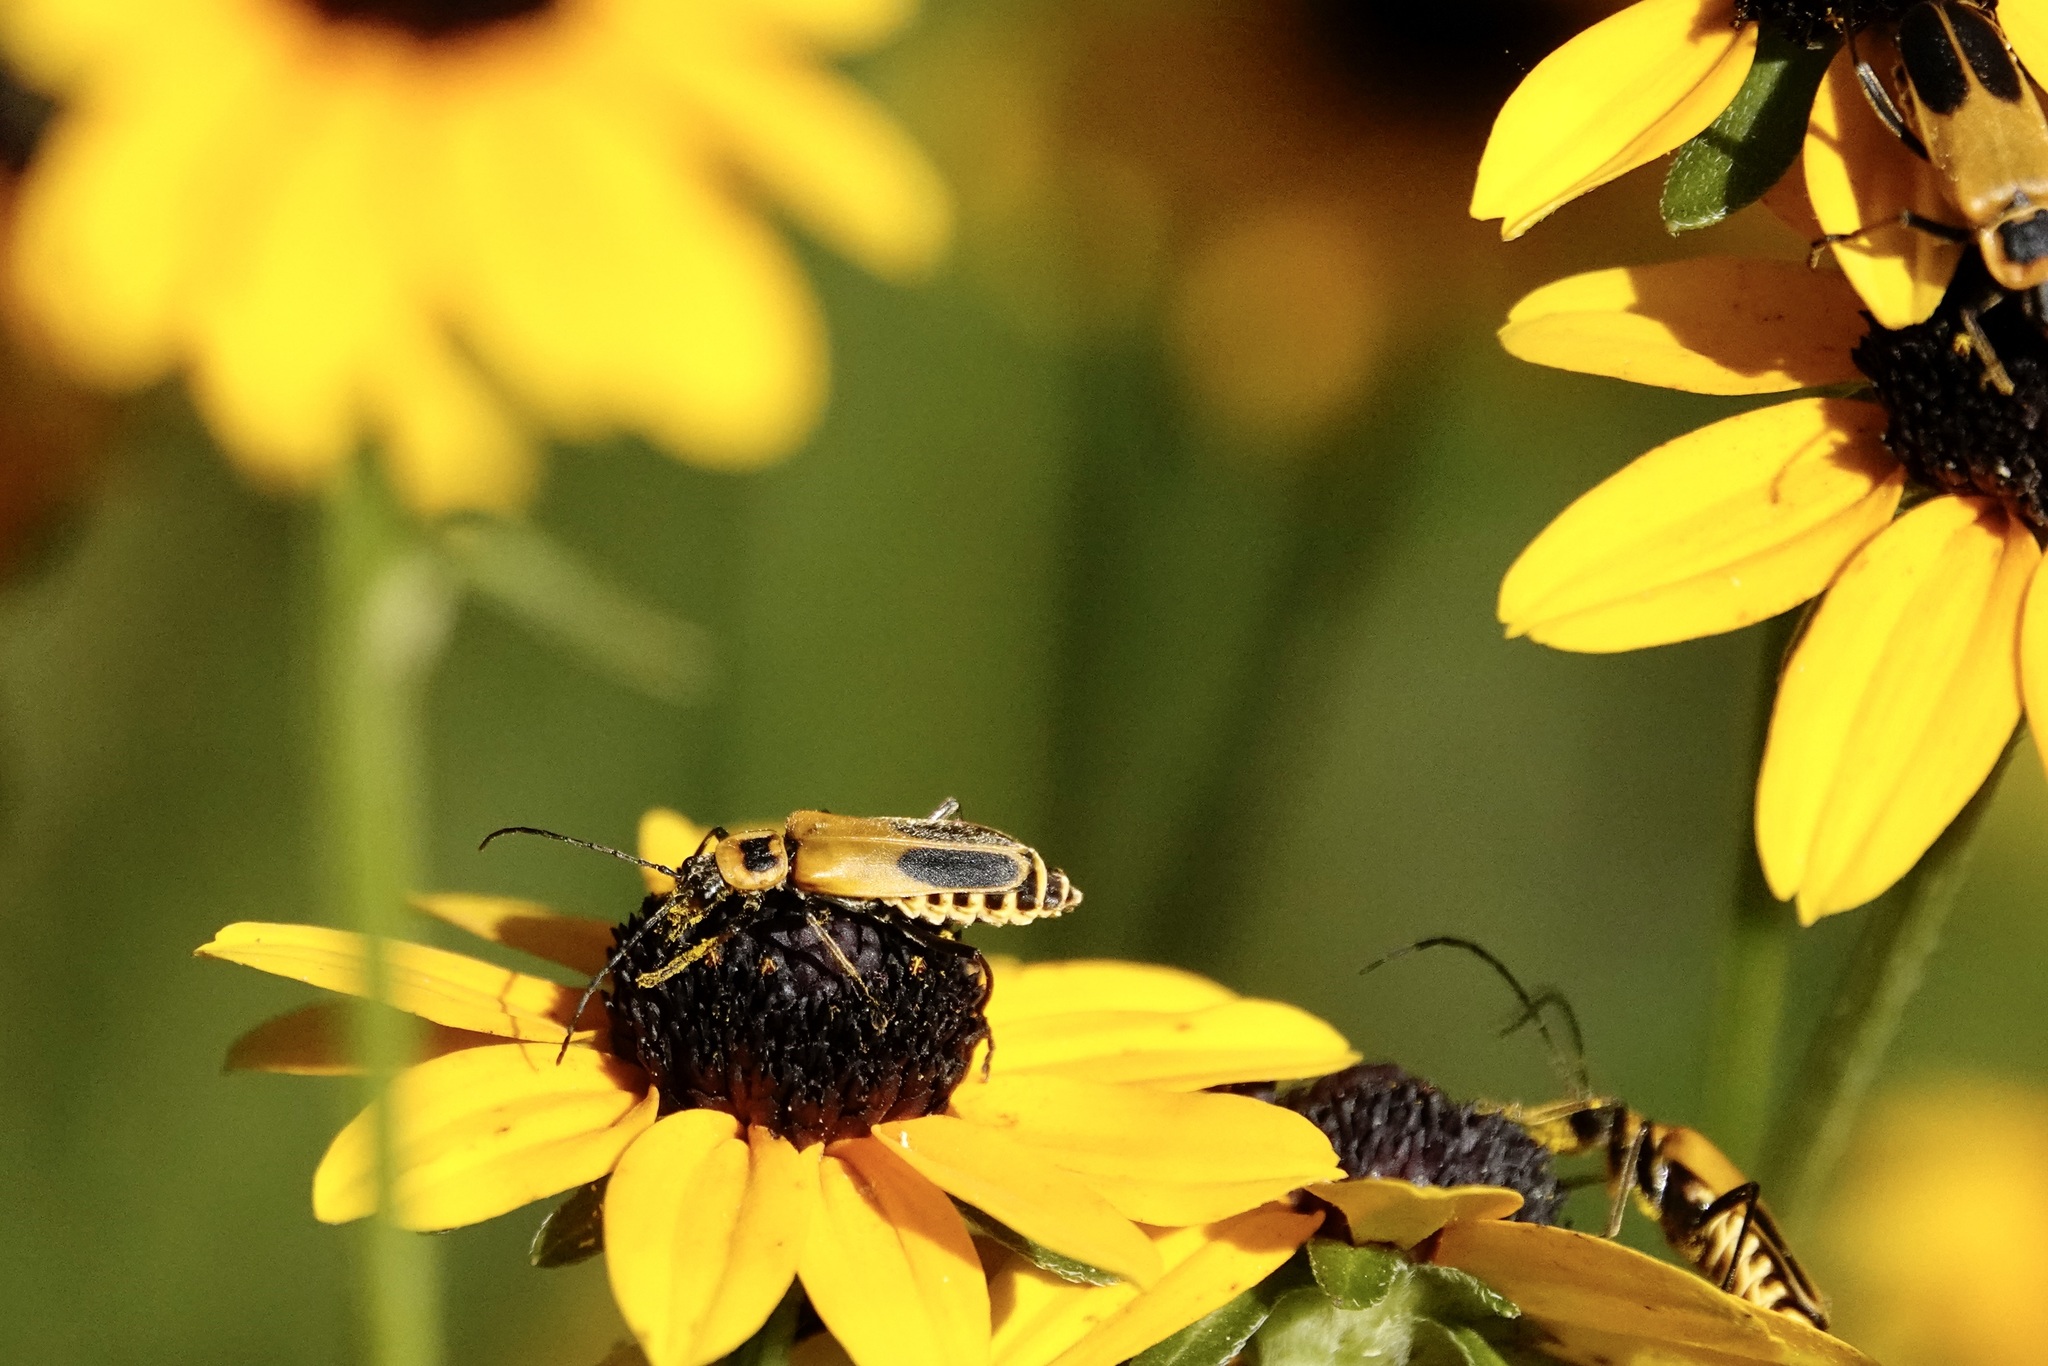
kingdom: Animalia
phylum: Arthropoda
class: Insecta
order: Coleoptera
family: Cantharidae
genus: Chauliognathus
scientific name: Chauliognathus pensylvanicus
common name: Goldenrod soldier beetle
